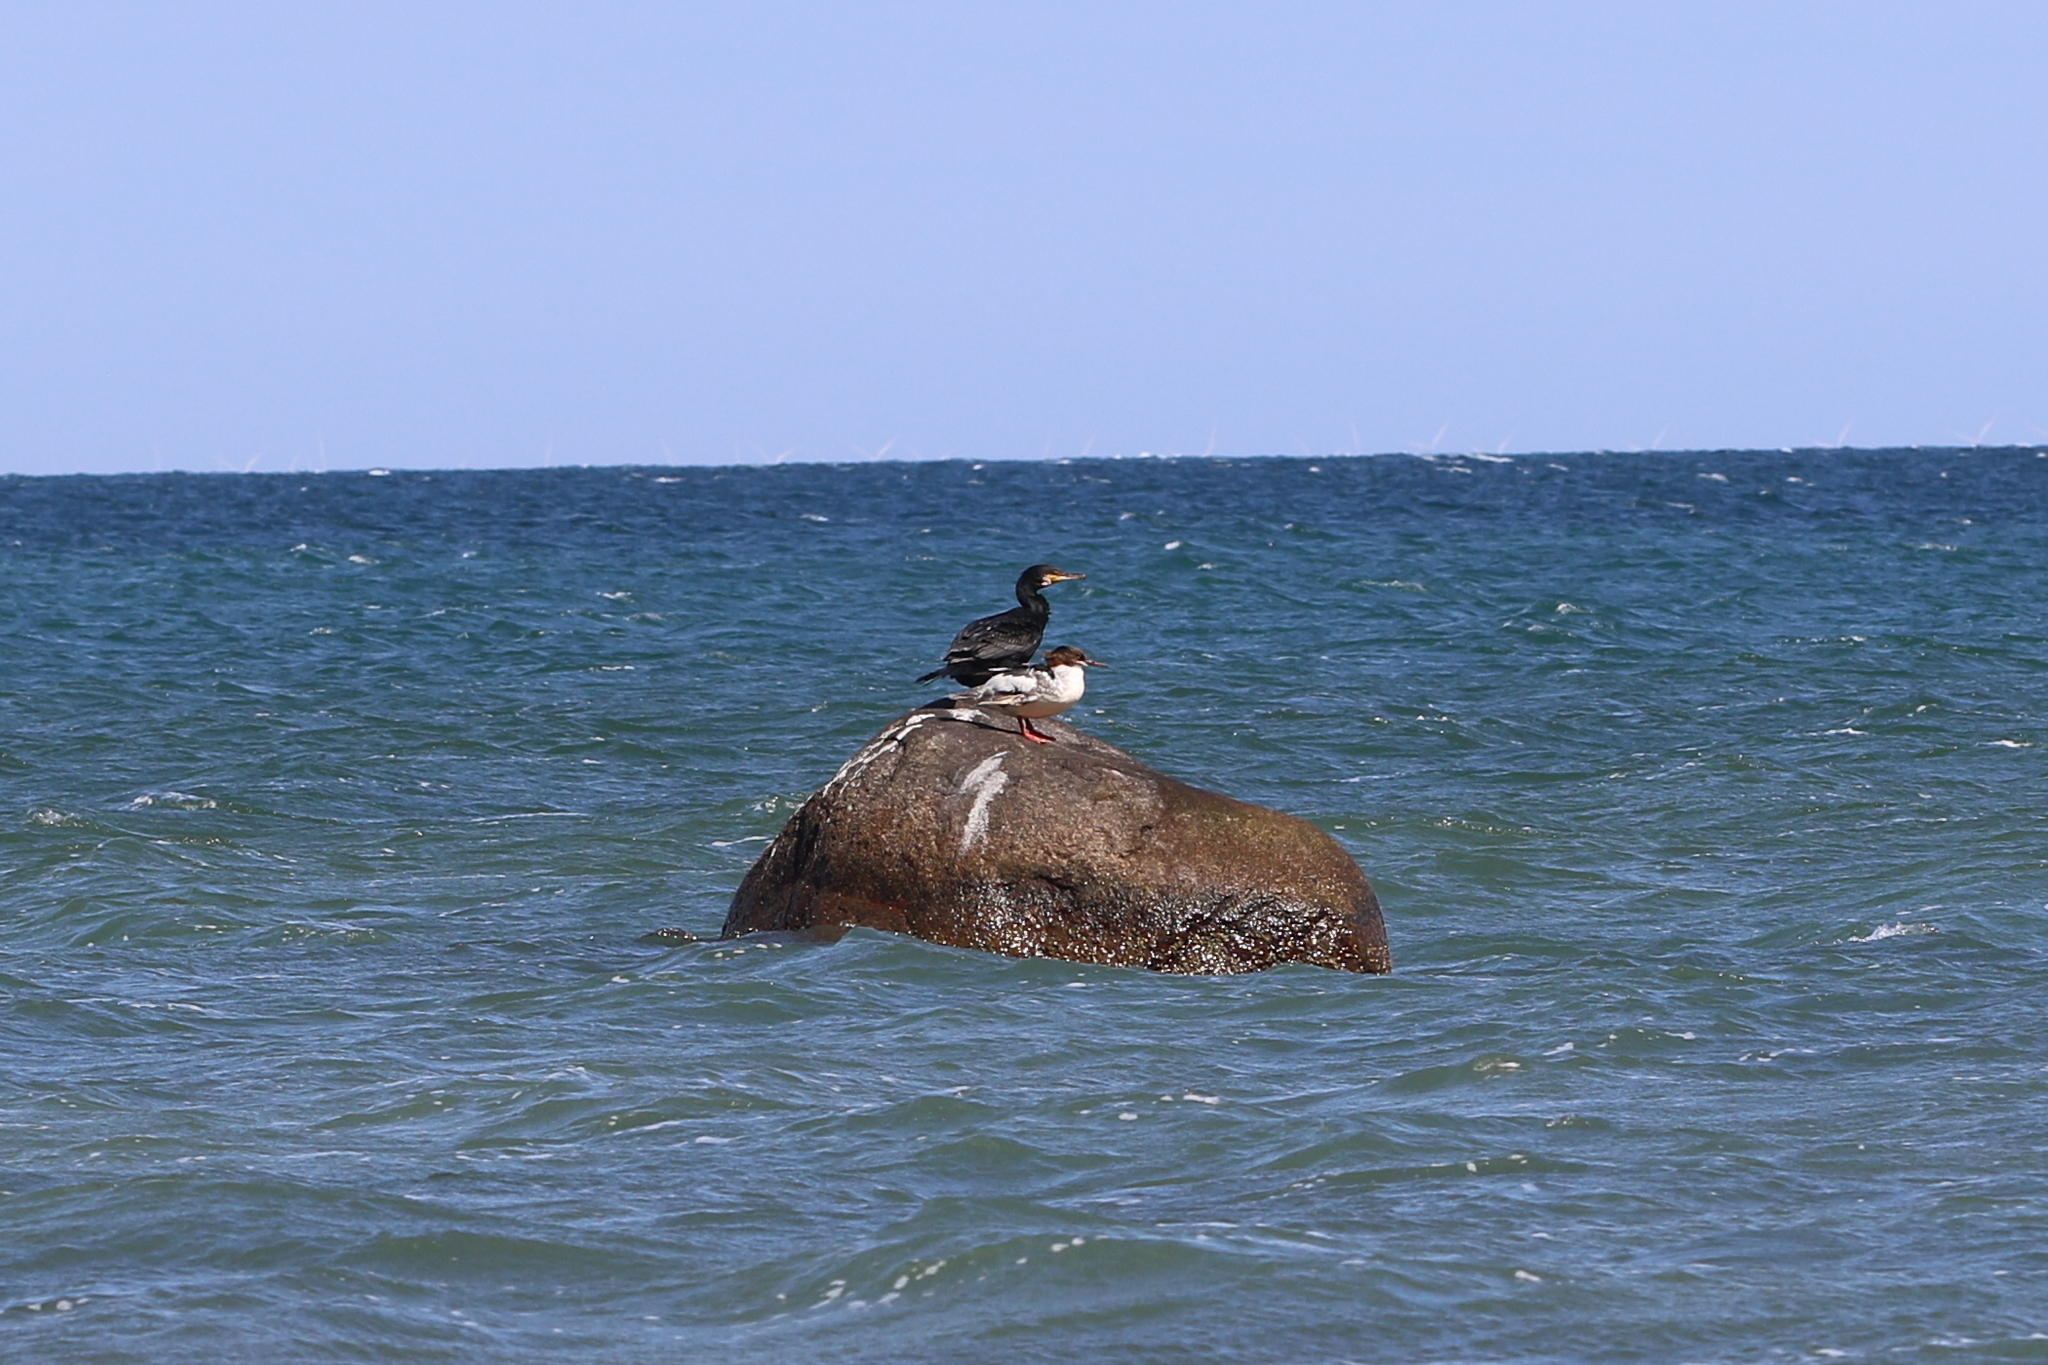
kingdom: Animalia
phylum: Chordata
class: Aves
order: Anseriformes
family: Anatidae
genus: Mergus
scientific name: Mergus merganser
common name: Common merganser
